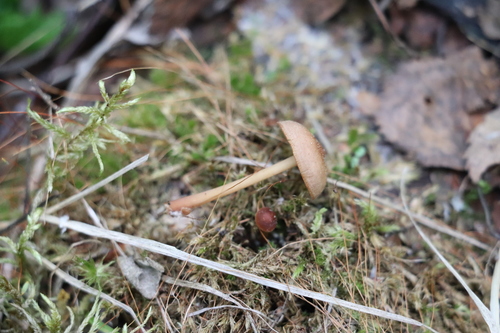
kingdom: Fungi
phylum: Basidiomycota
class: Agaricomycetes
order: Agaricales
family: Omphalotaceae
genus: Gymnopus
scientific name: Gymnopus dryophilus
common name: Penny top
